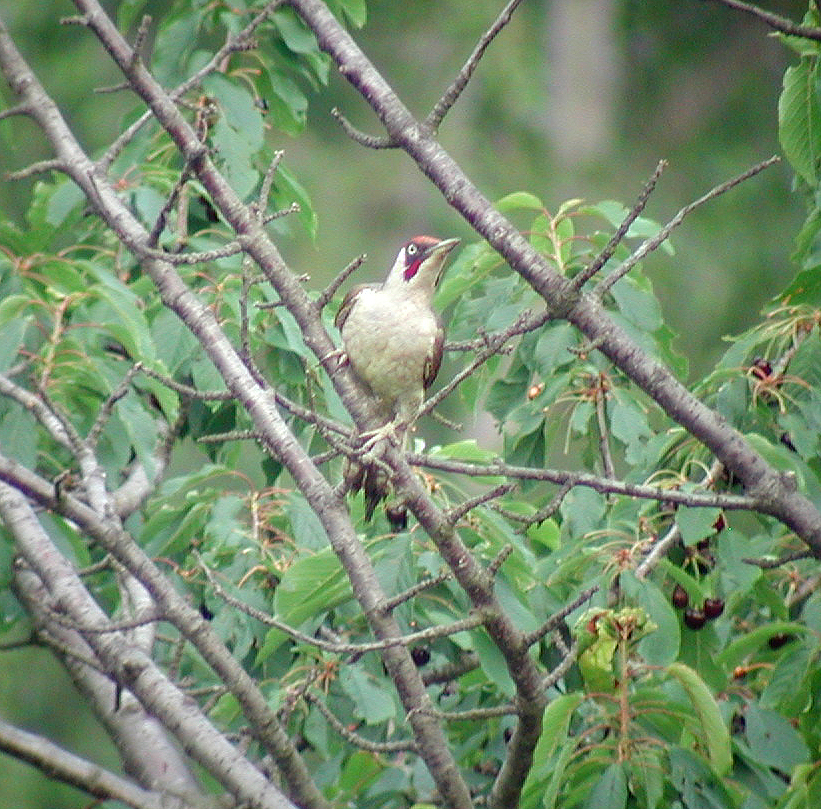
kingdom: Animalia
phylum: Chordata
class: Aves
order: Piciformes
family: Picidae
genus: Picus
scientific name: Picus viridis
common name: European green woodpecker
